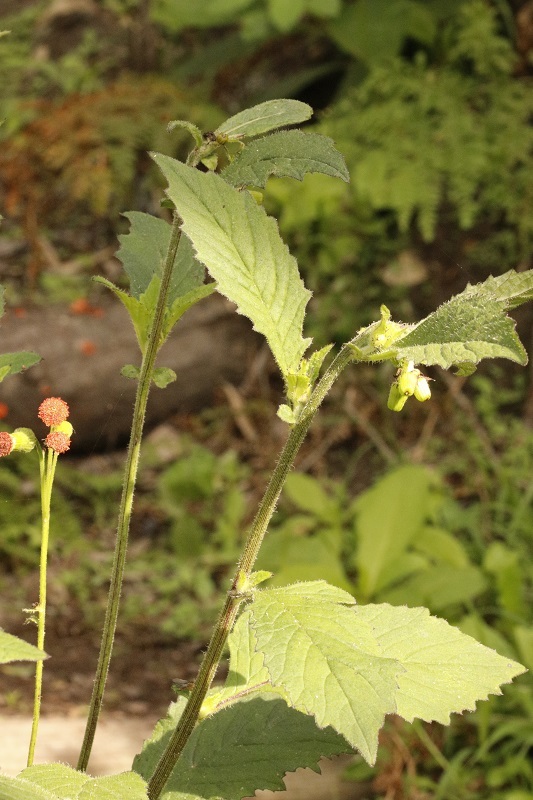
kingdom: Plantae
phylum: Tracheophyta
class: Magnoliopsida
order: Asterales
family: Asteraceae
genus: Crassocephalum
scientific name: Crassocephalum crepidioides
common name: Redflower ragleaf
